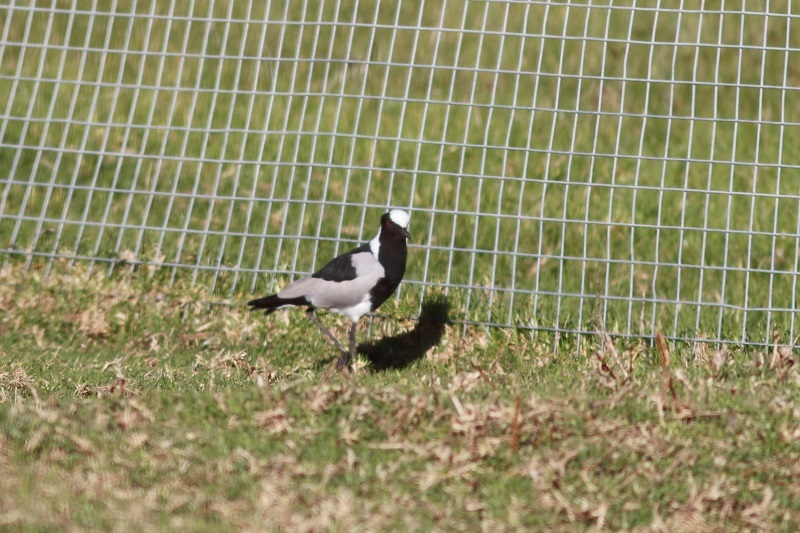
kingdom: Animalia
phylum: Chordata
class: Aves
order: Charadriiformes
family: Charadriidae
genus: Vanellus
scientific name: Vanellus armatus
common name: Blacksmith lapwing
